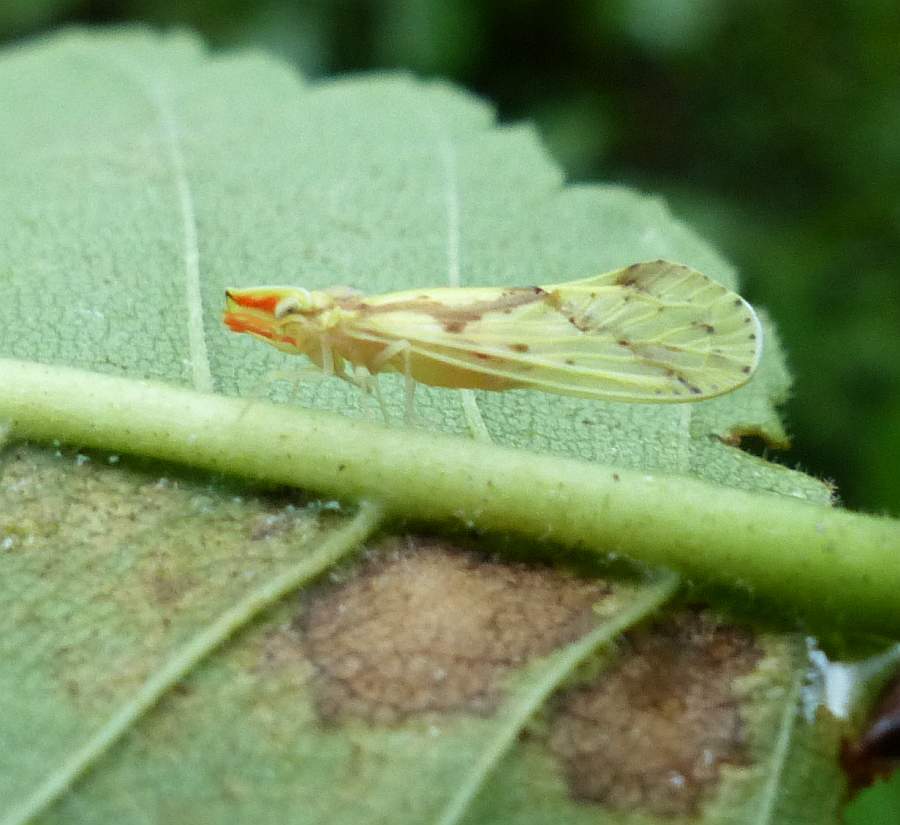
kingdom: Animalia
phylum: Arthropoda
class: Insecta
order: Hemiptera
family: Derbidae
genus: Otiocerus
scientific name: Otiocerus wolfii
